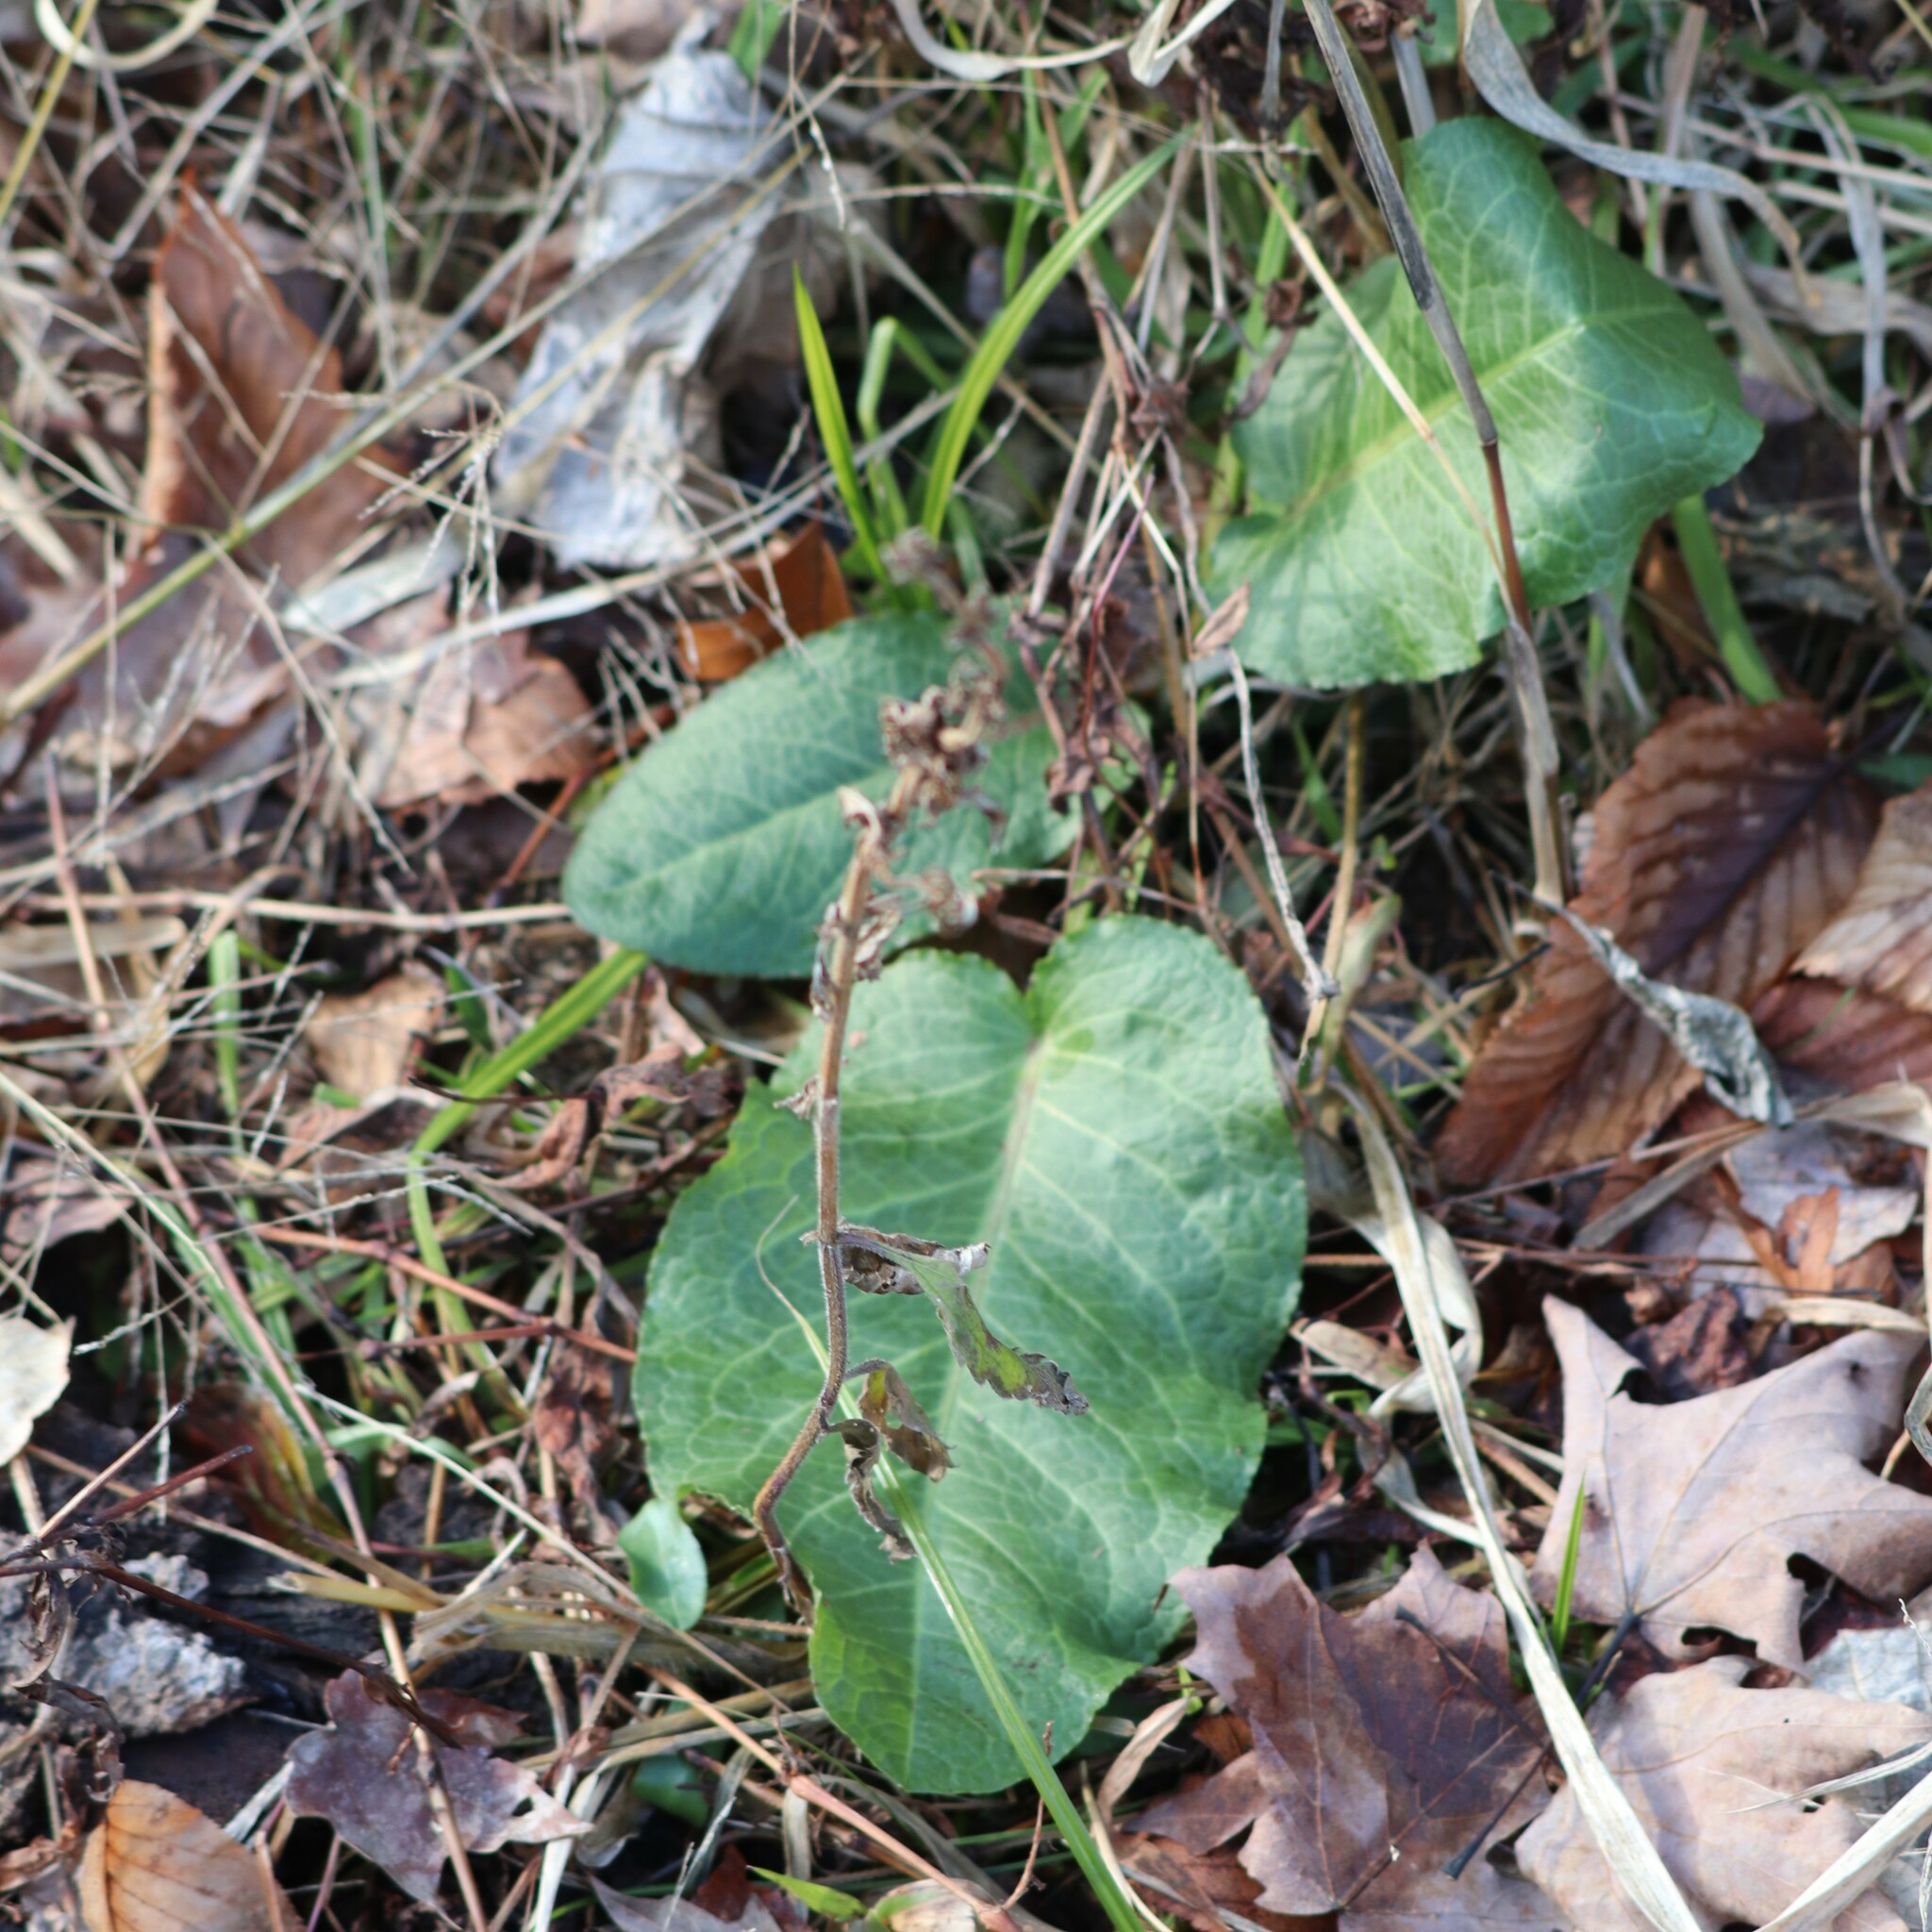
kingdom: Plantae
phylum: Tracheophyta
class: Magnoliopsida
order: Caryophyllales
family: Polygonaceae
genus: Rumex
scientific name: Rumex obtusifolius
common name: Bitter dock
